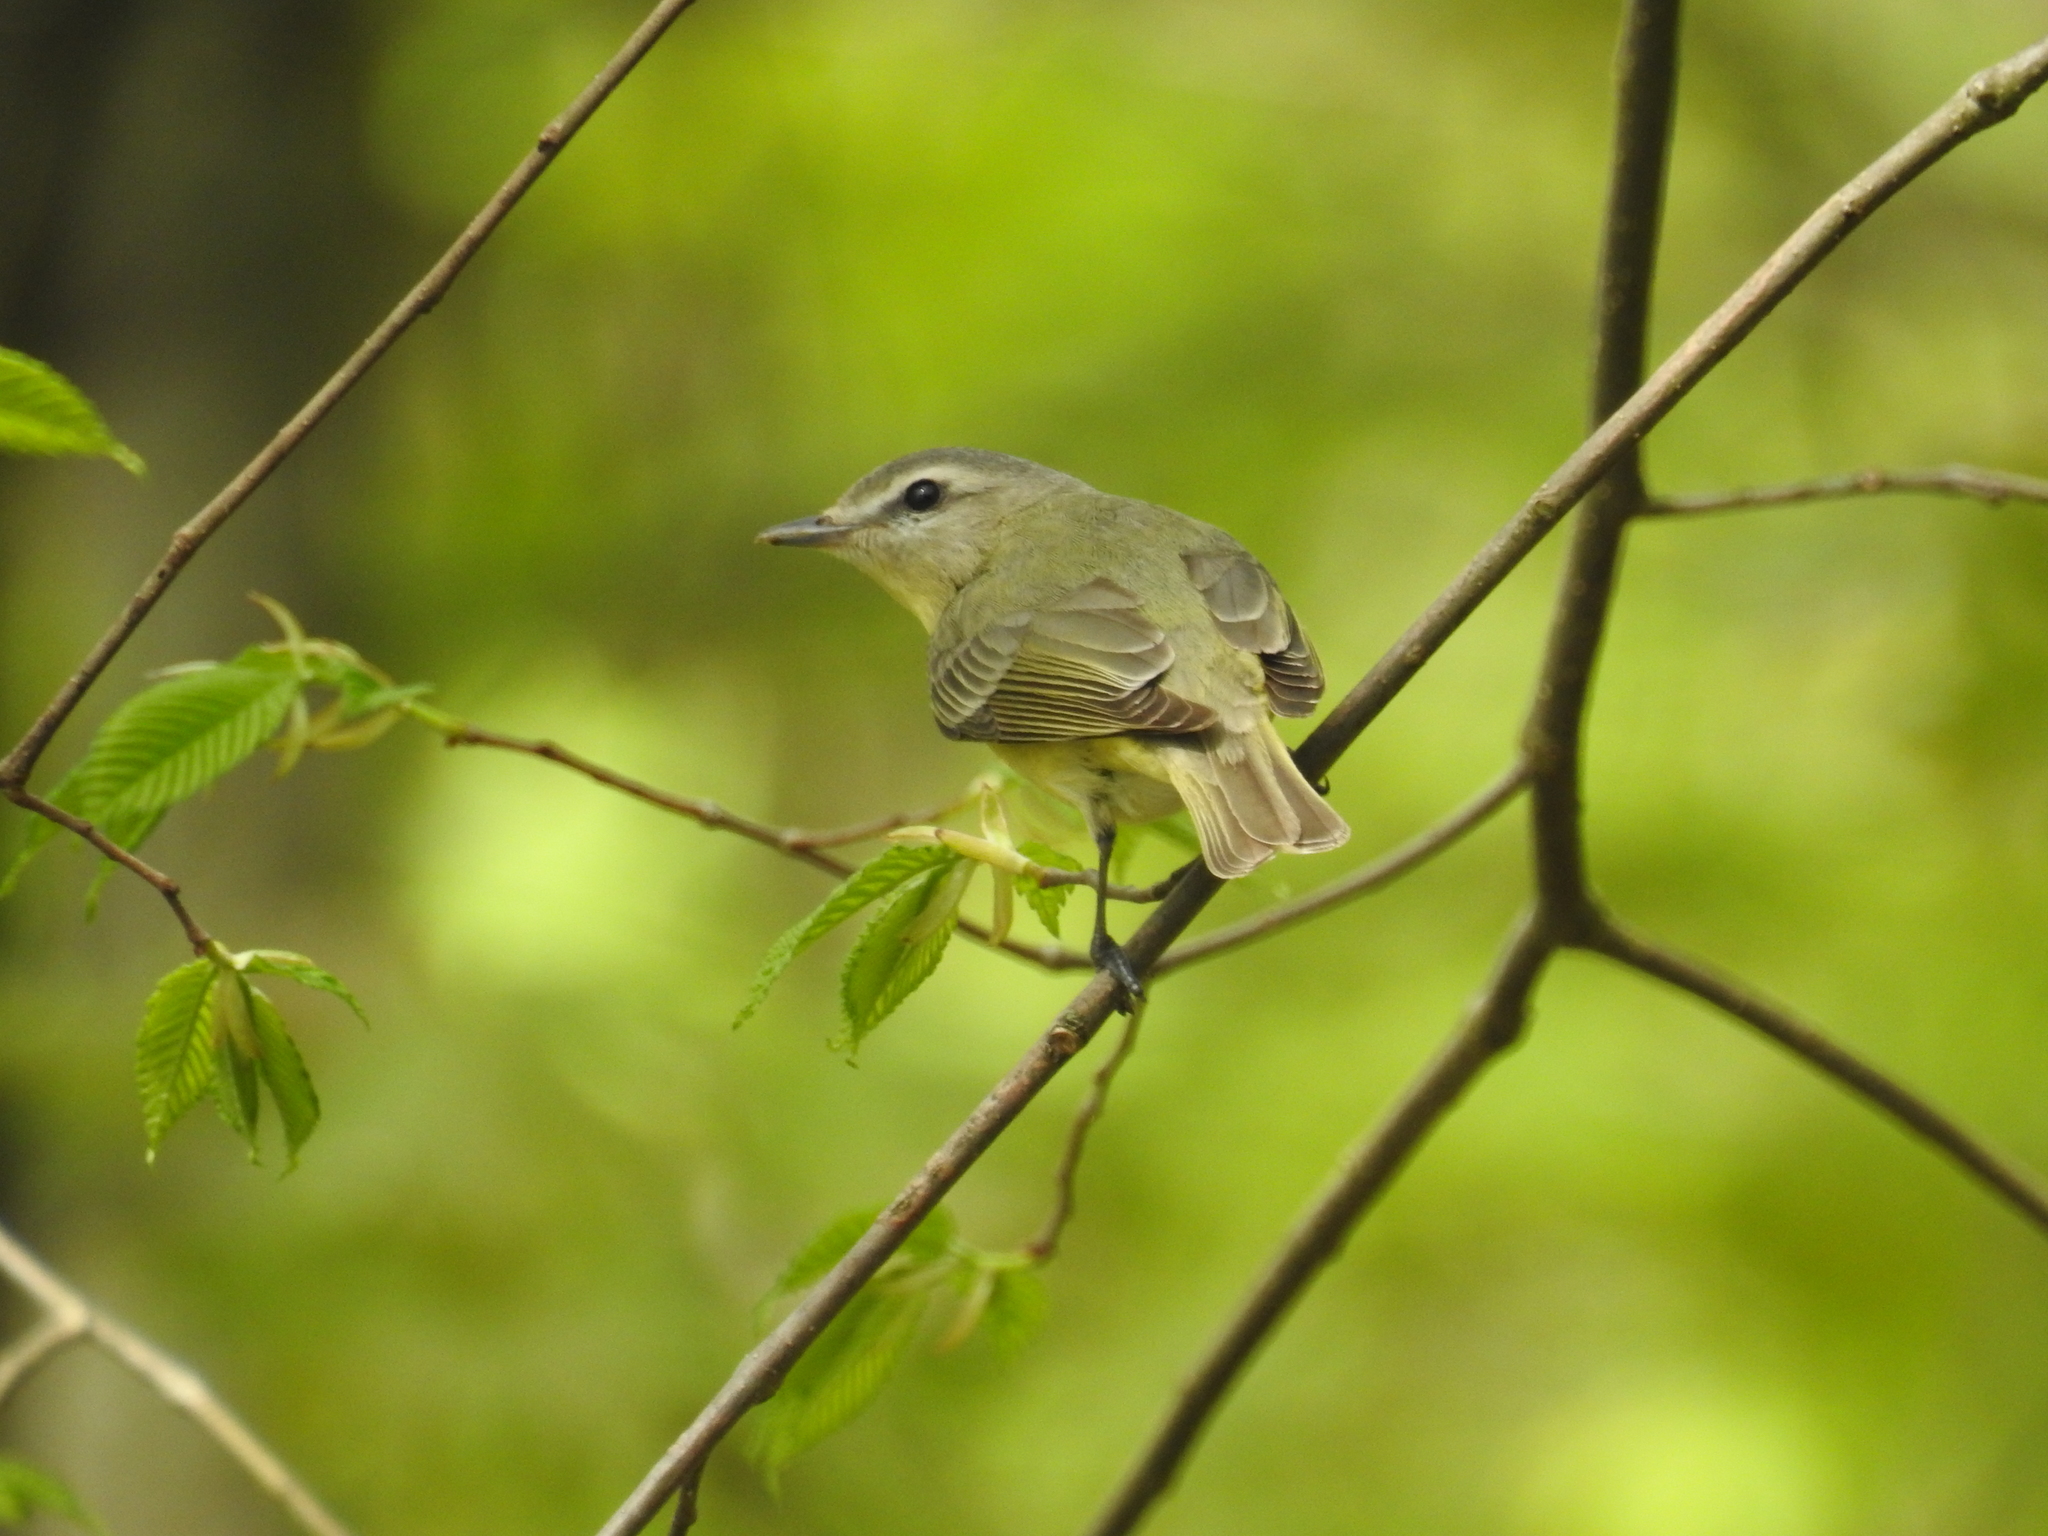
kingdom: Animalia
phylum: Chordata
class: Aves
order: Passeriformes
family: Vireonidae
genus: Vireo
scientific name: Vireo philadelphicus
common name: Philadelphia vireo
